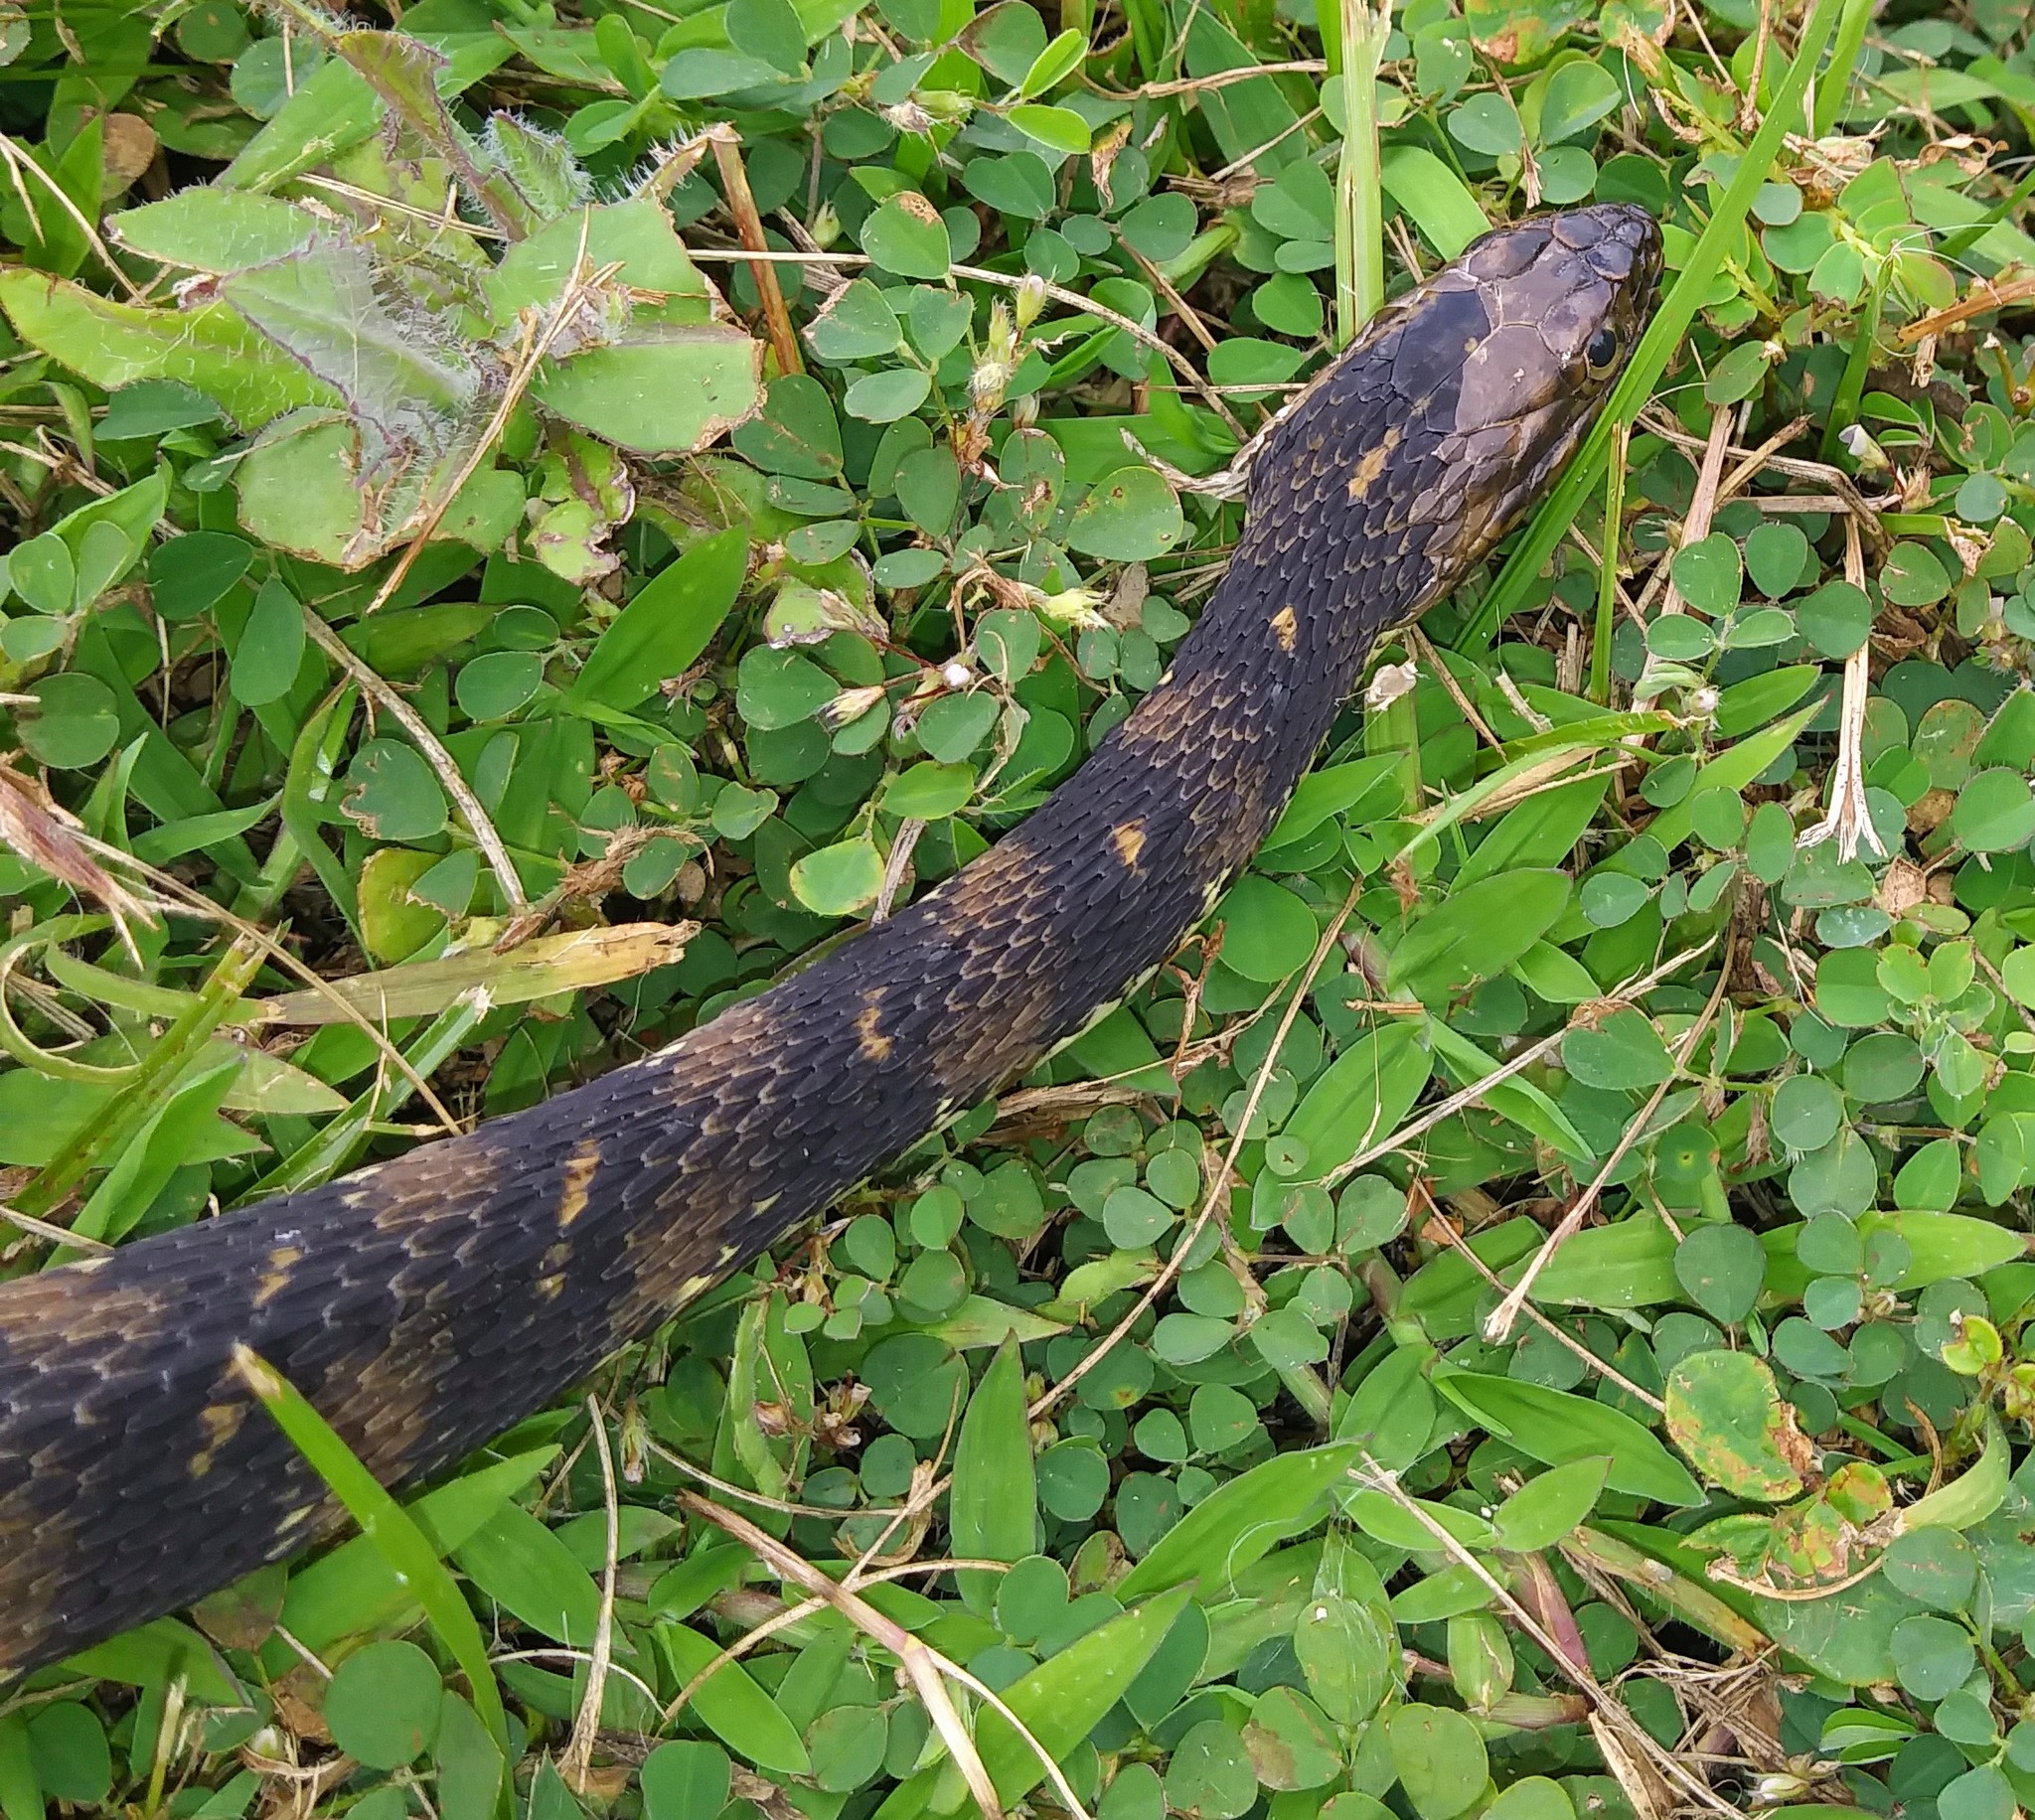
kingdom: Animalia
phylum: Chordata
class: Squamata
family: Colubridae
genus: Nerodia
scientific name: Nerodia fasciata
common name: Southern water snake
